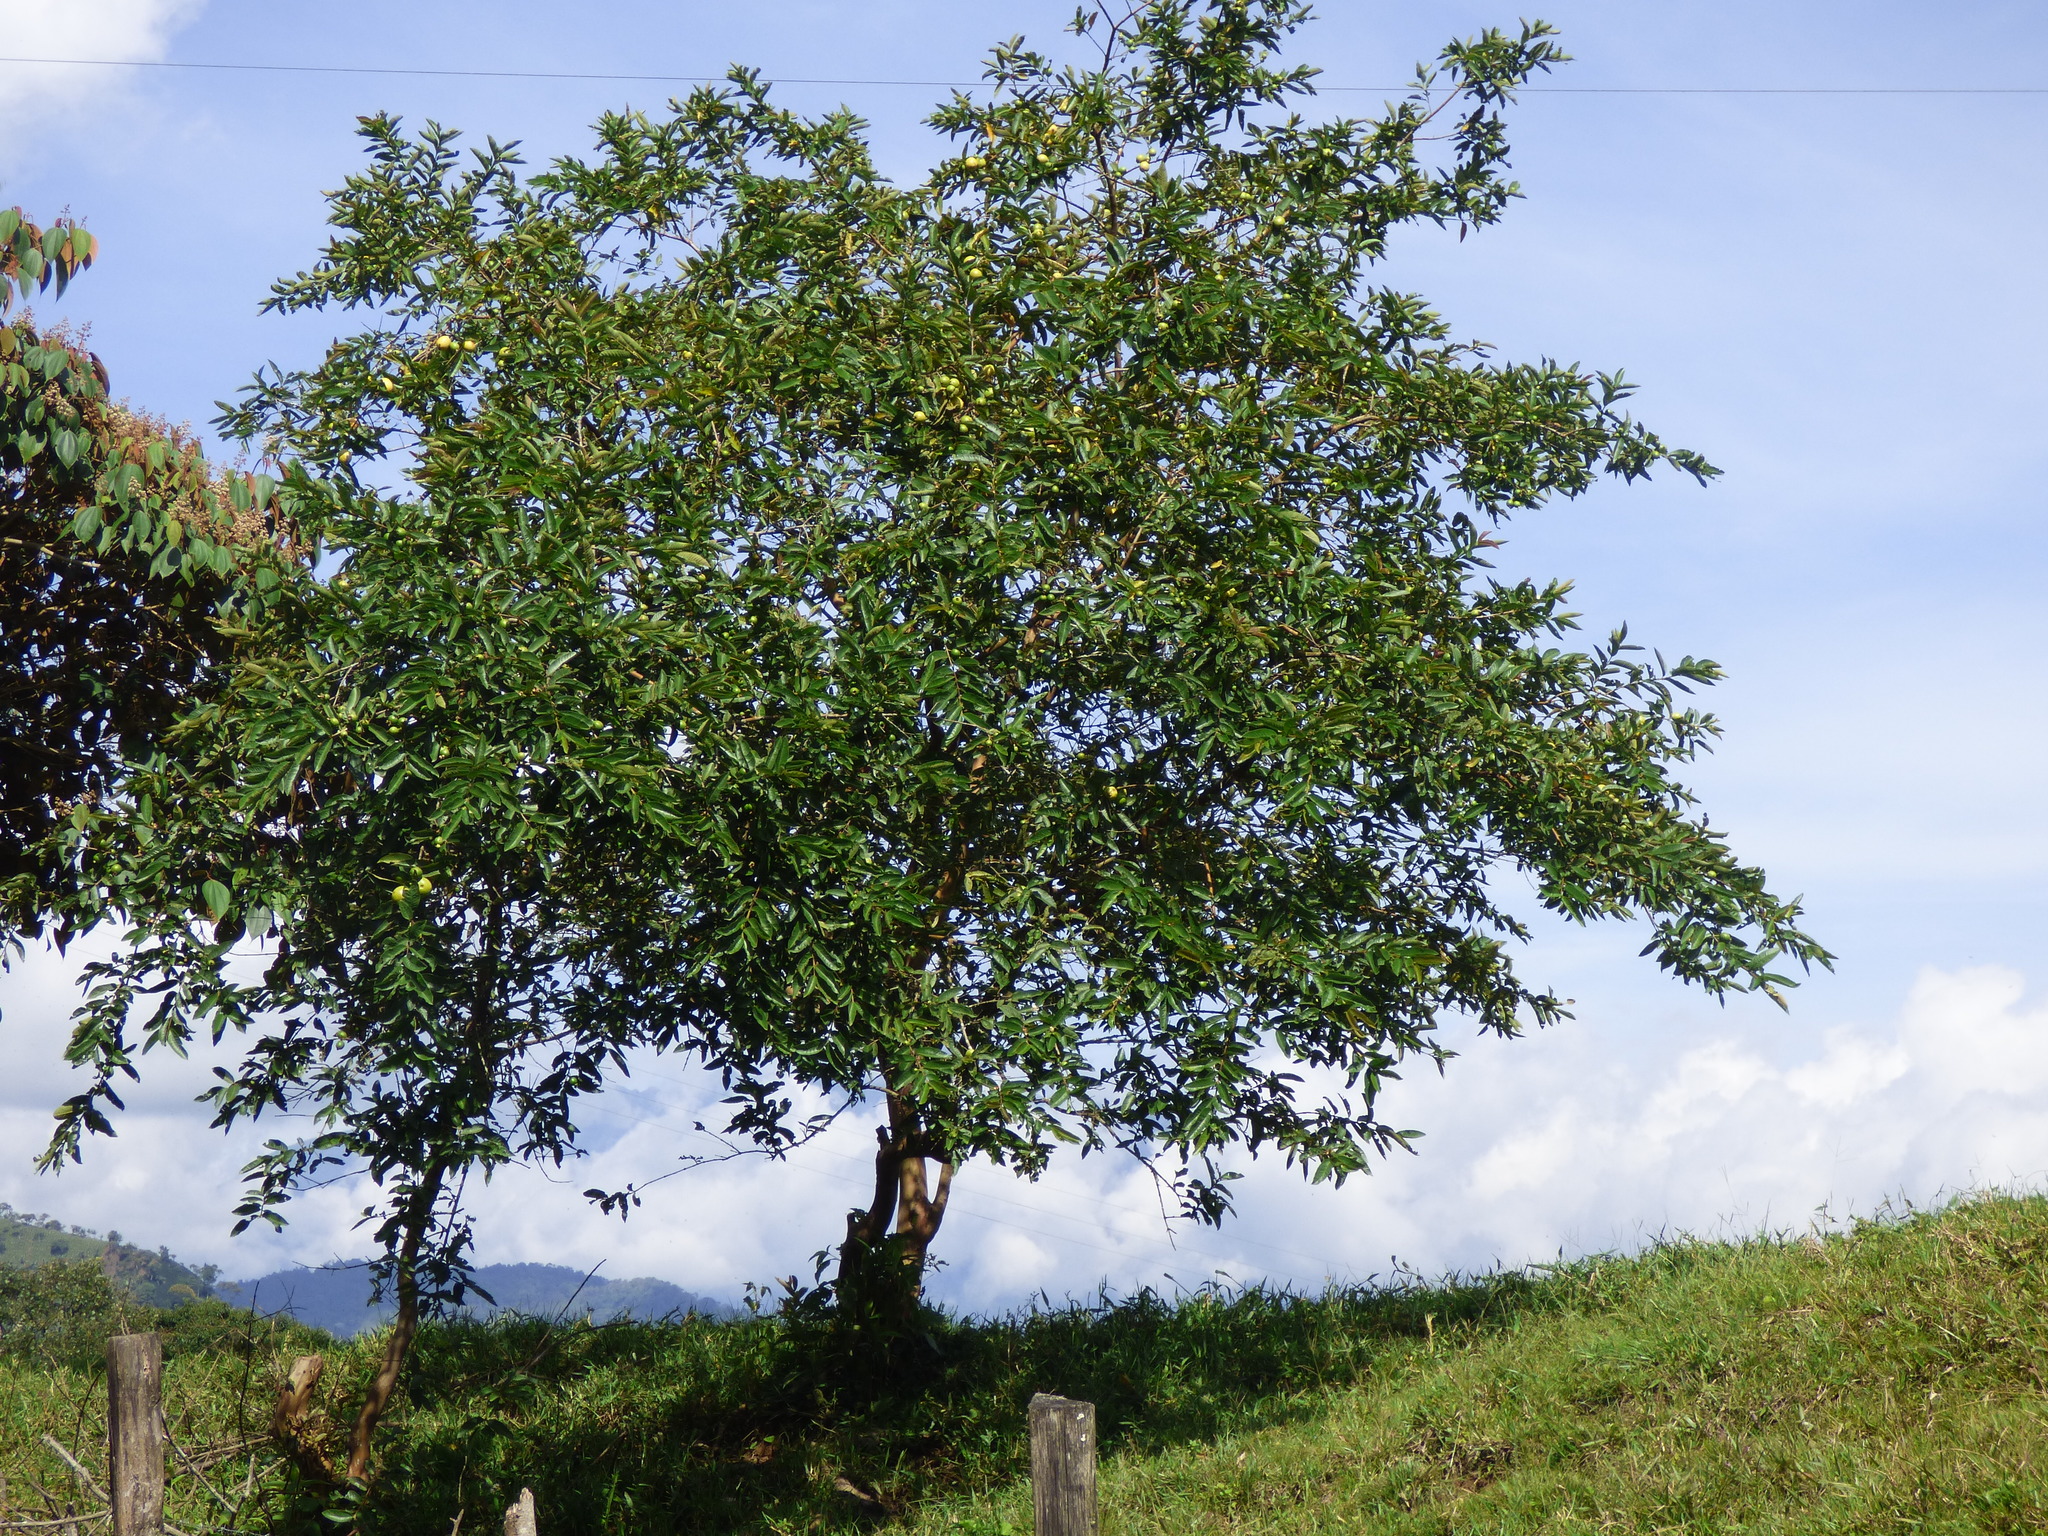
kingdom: Plantae
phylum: Tracheophyta
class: Magnoliopsida
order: Myrtales
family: Myrtaceae
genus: Psidium
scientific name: Psidium guajava
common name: Guava
